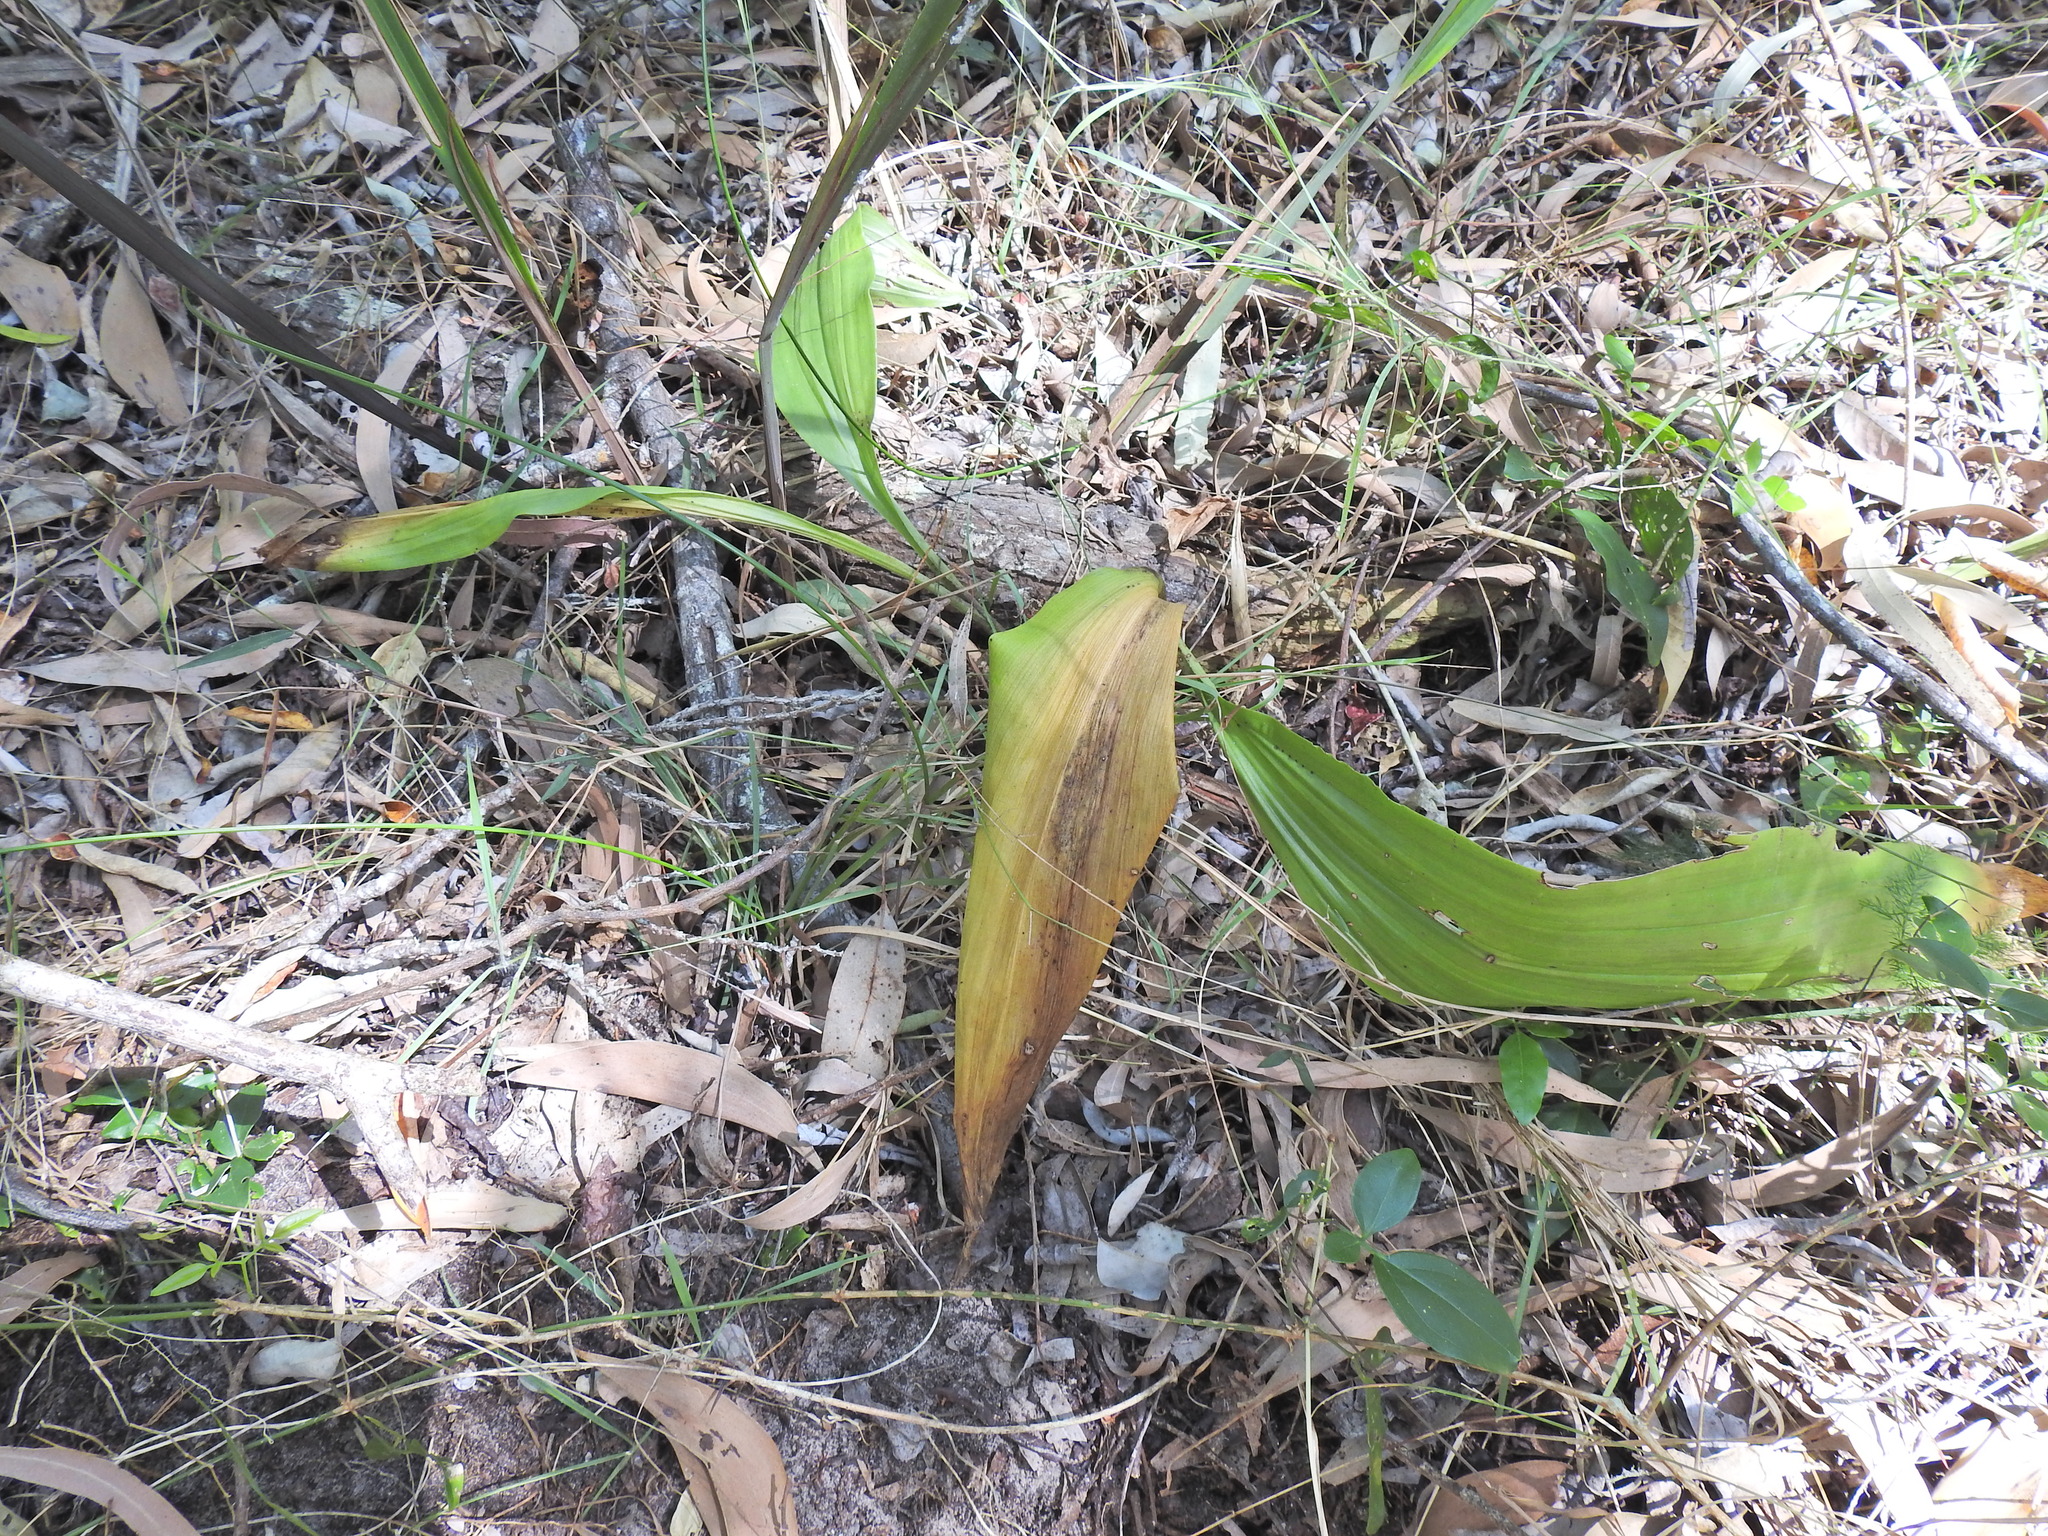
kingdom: Plantae
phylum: Tracheophyta
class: Liliopsida
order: Asparagales
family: Orchidaceae
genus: Eulophia
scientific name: Eulophia cernua
